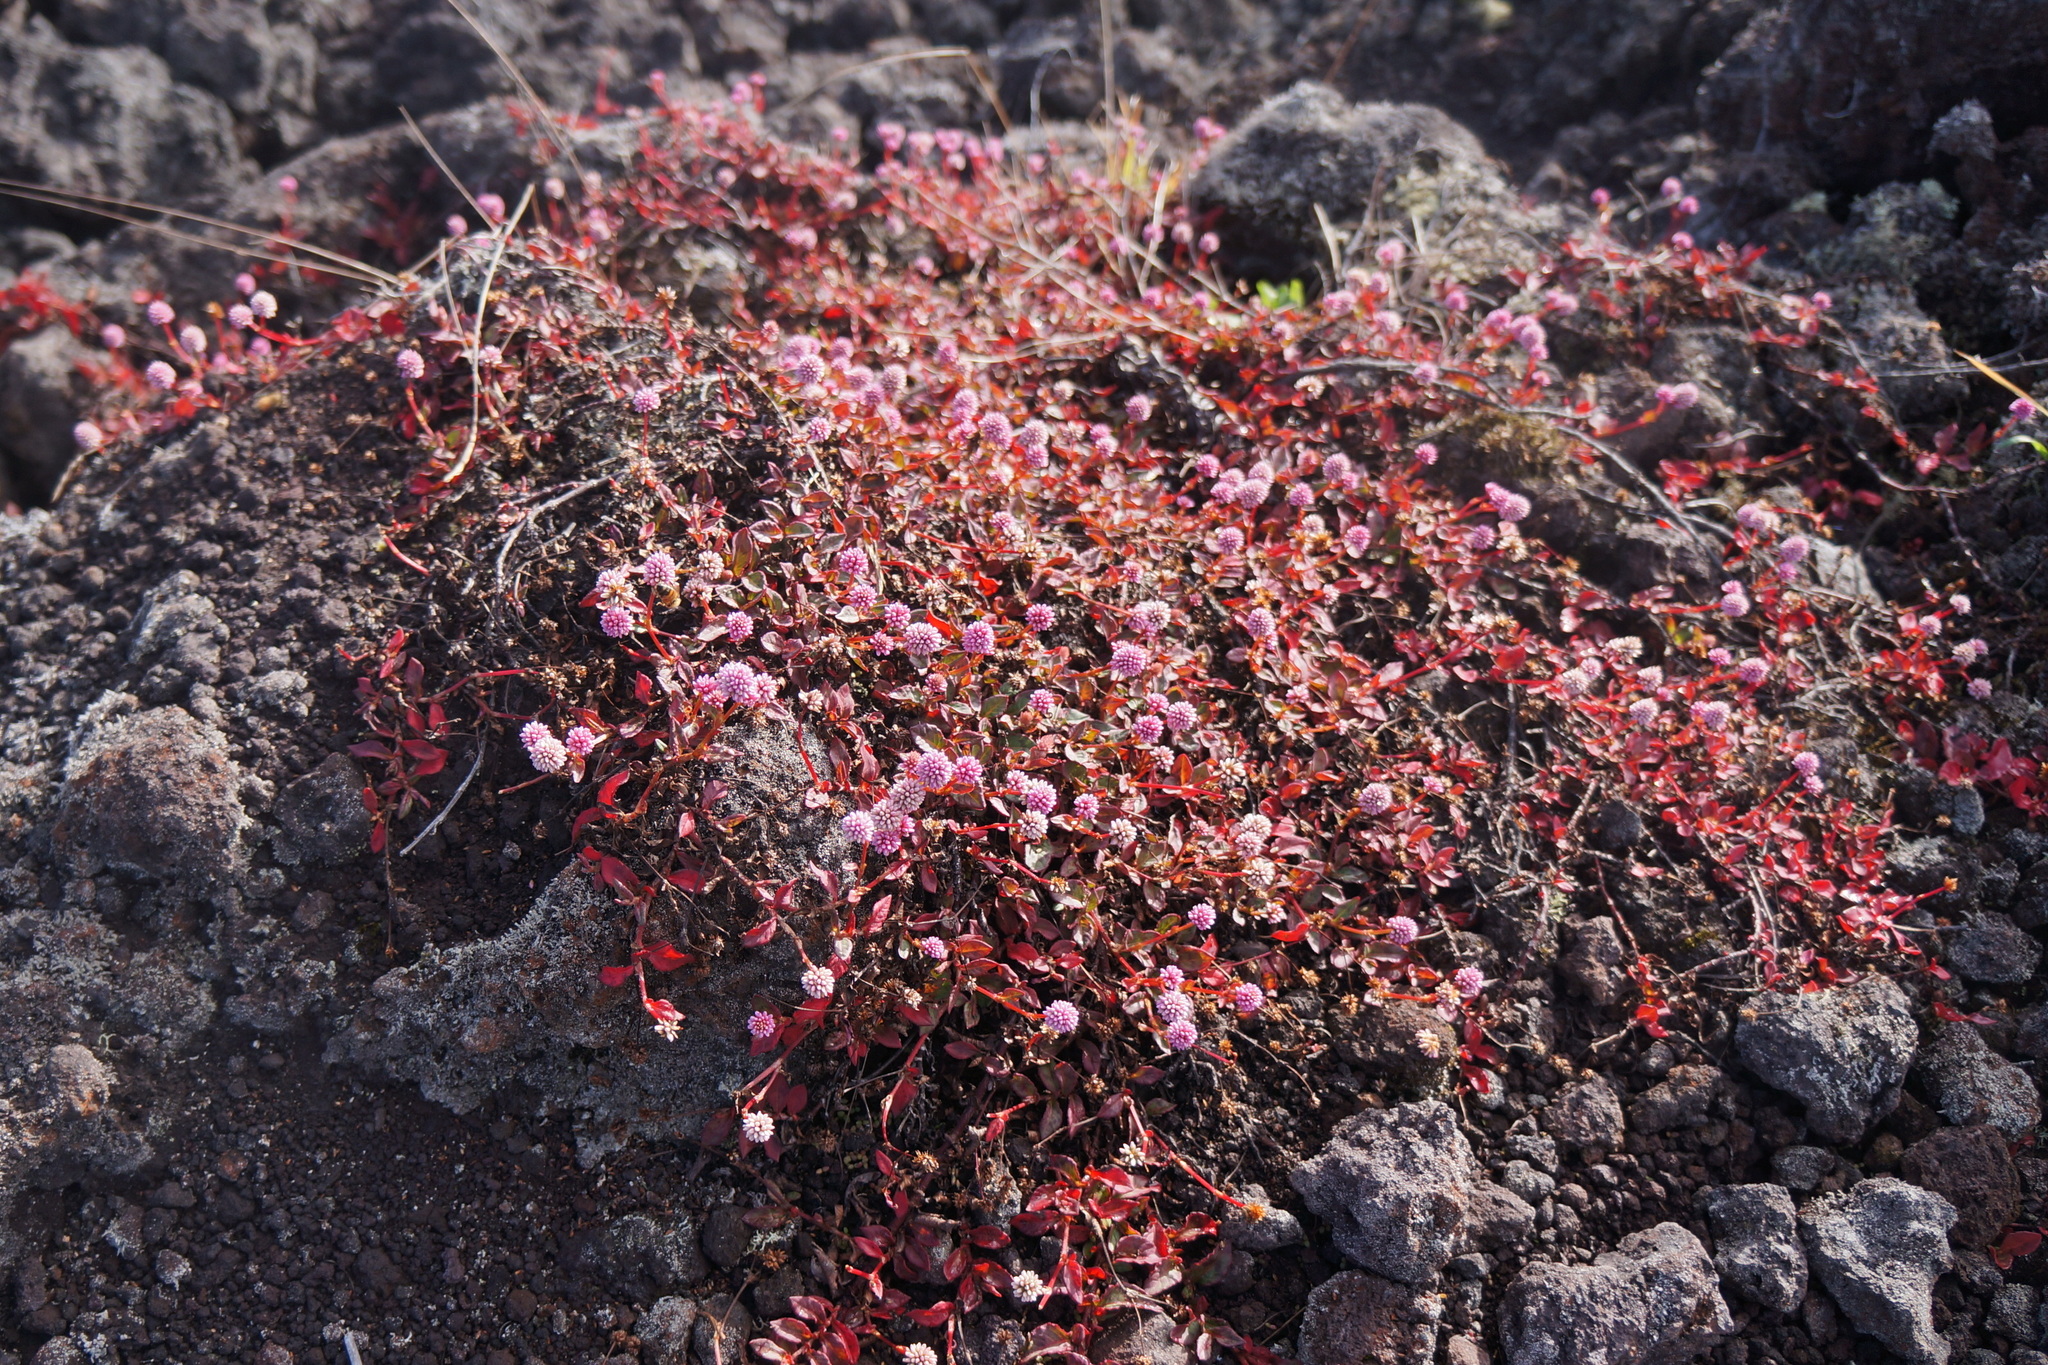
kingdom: Plantae
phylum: Tracheophyta
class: Magnoliopsida
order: Caryophyllales
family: Polygonaceae
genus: Persicaria
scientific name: Persicaria capitata
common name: Pinkhead smartweed
